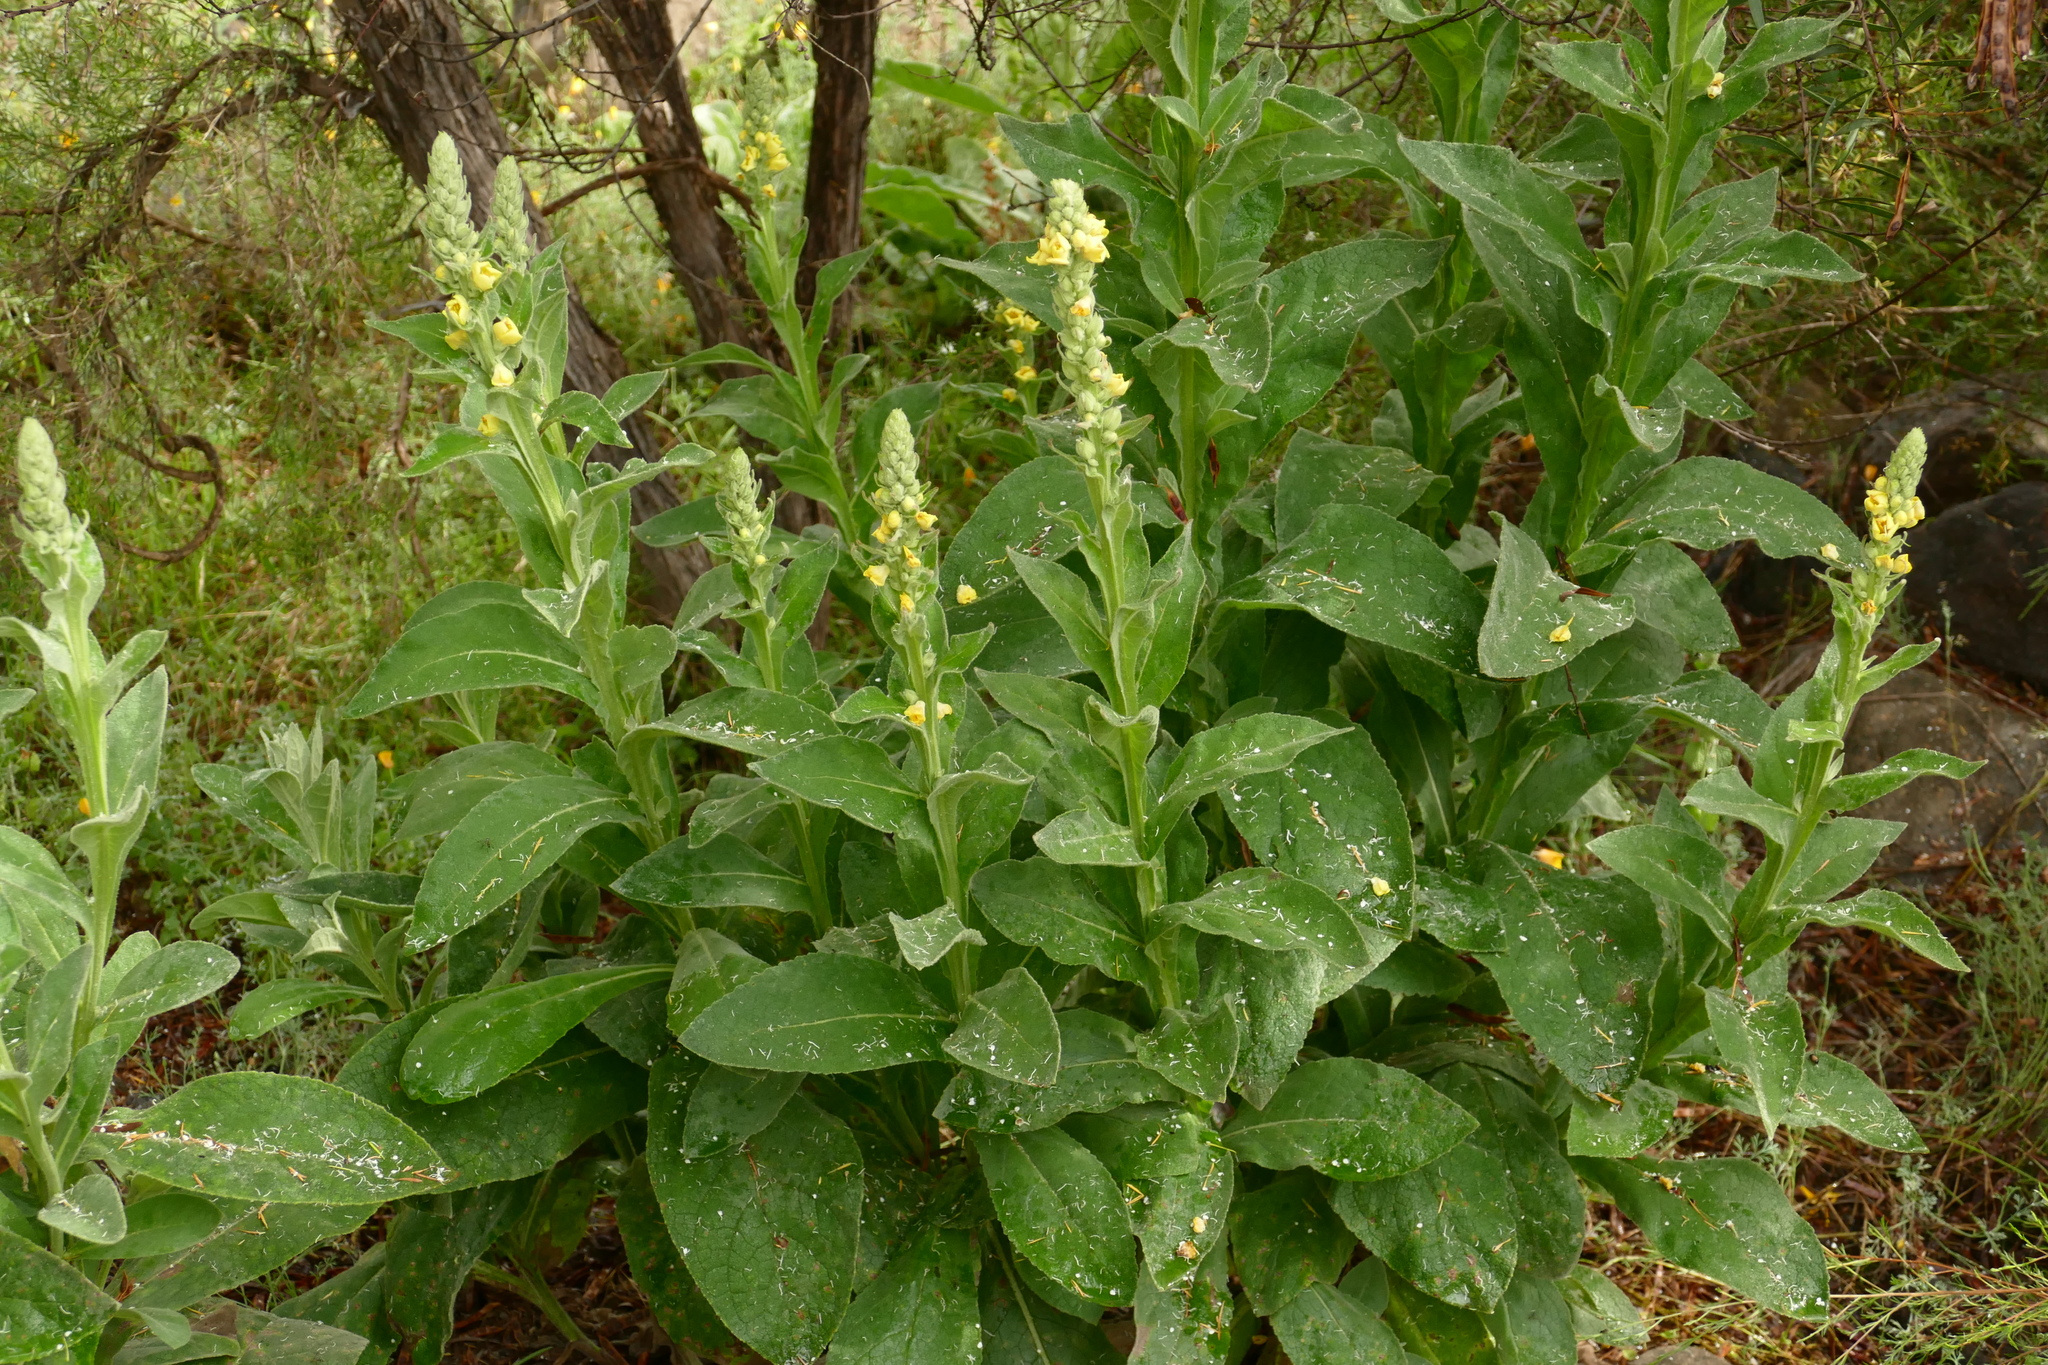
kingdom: Plantae
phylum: Tracheophyta
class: Magnoliopsida
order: Lamiales
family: Scrophulariaceae
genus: Verbascum
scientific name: Verbascum thapsus
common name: Common mullein
